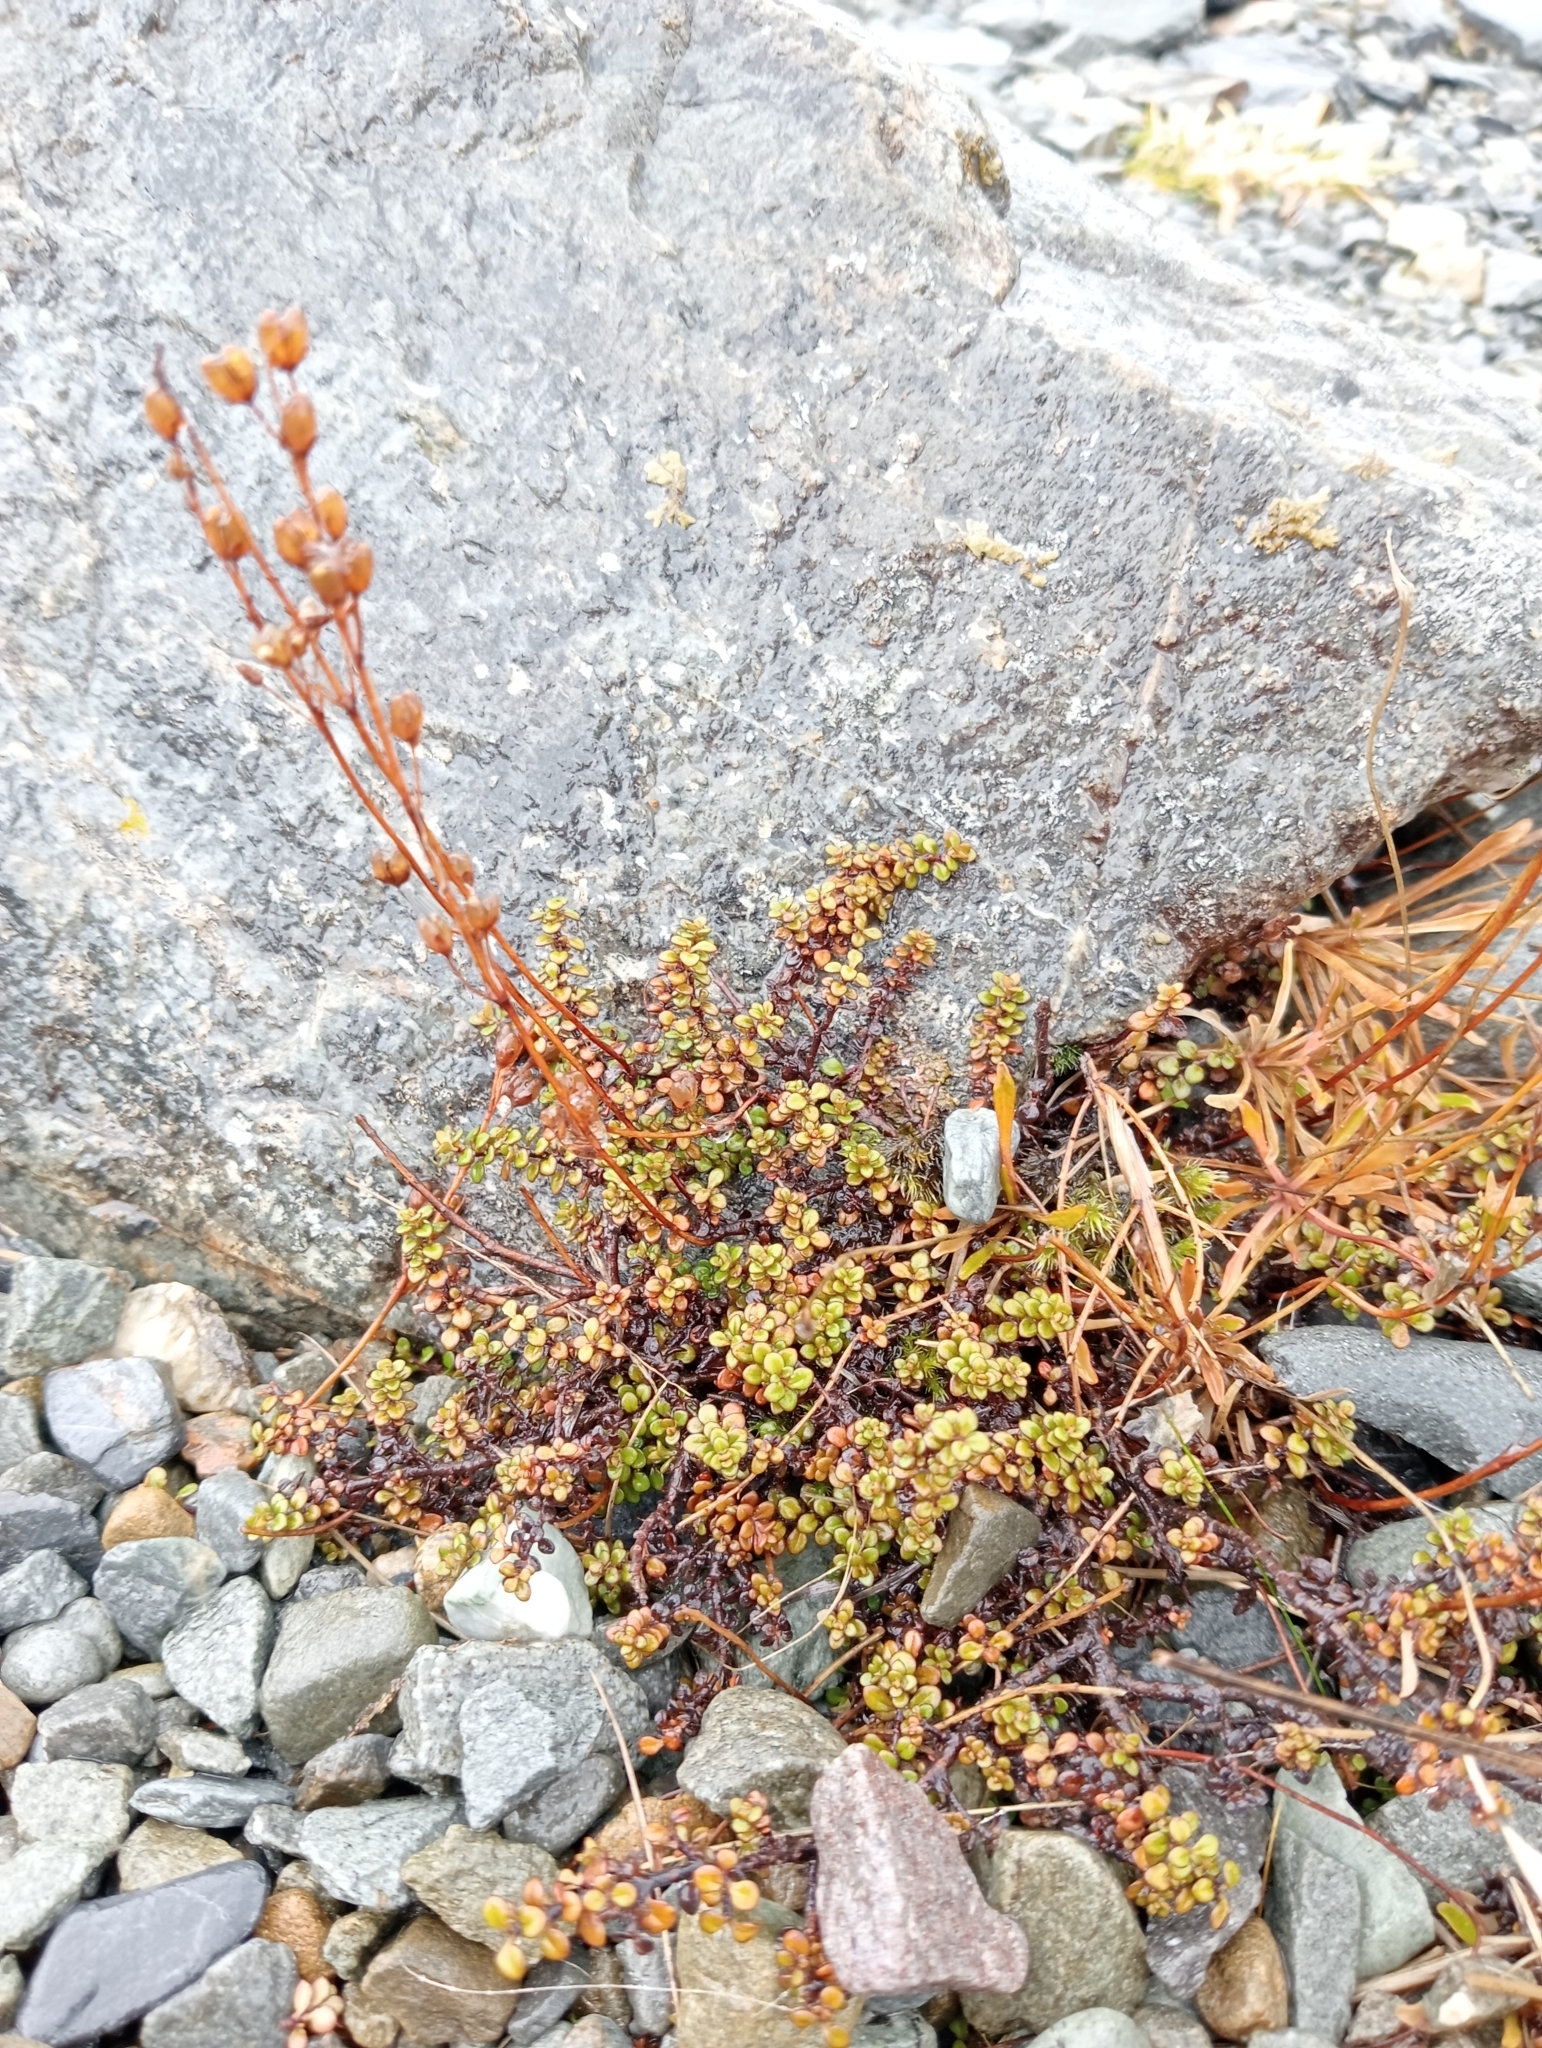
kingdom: Plantae
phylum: Tracheophyta
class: Magnoliopsida
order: Lamiales
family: Plantaginaceae
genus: Veronica
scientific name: Veronica decora
